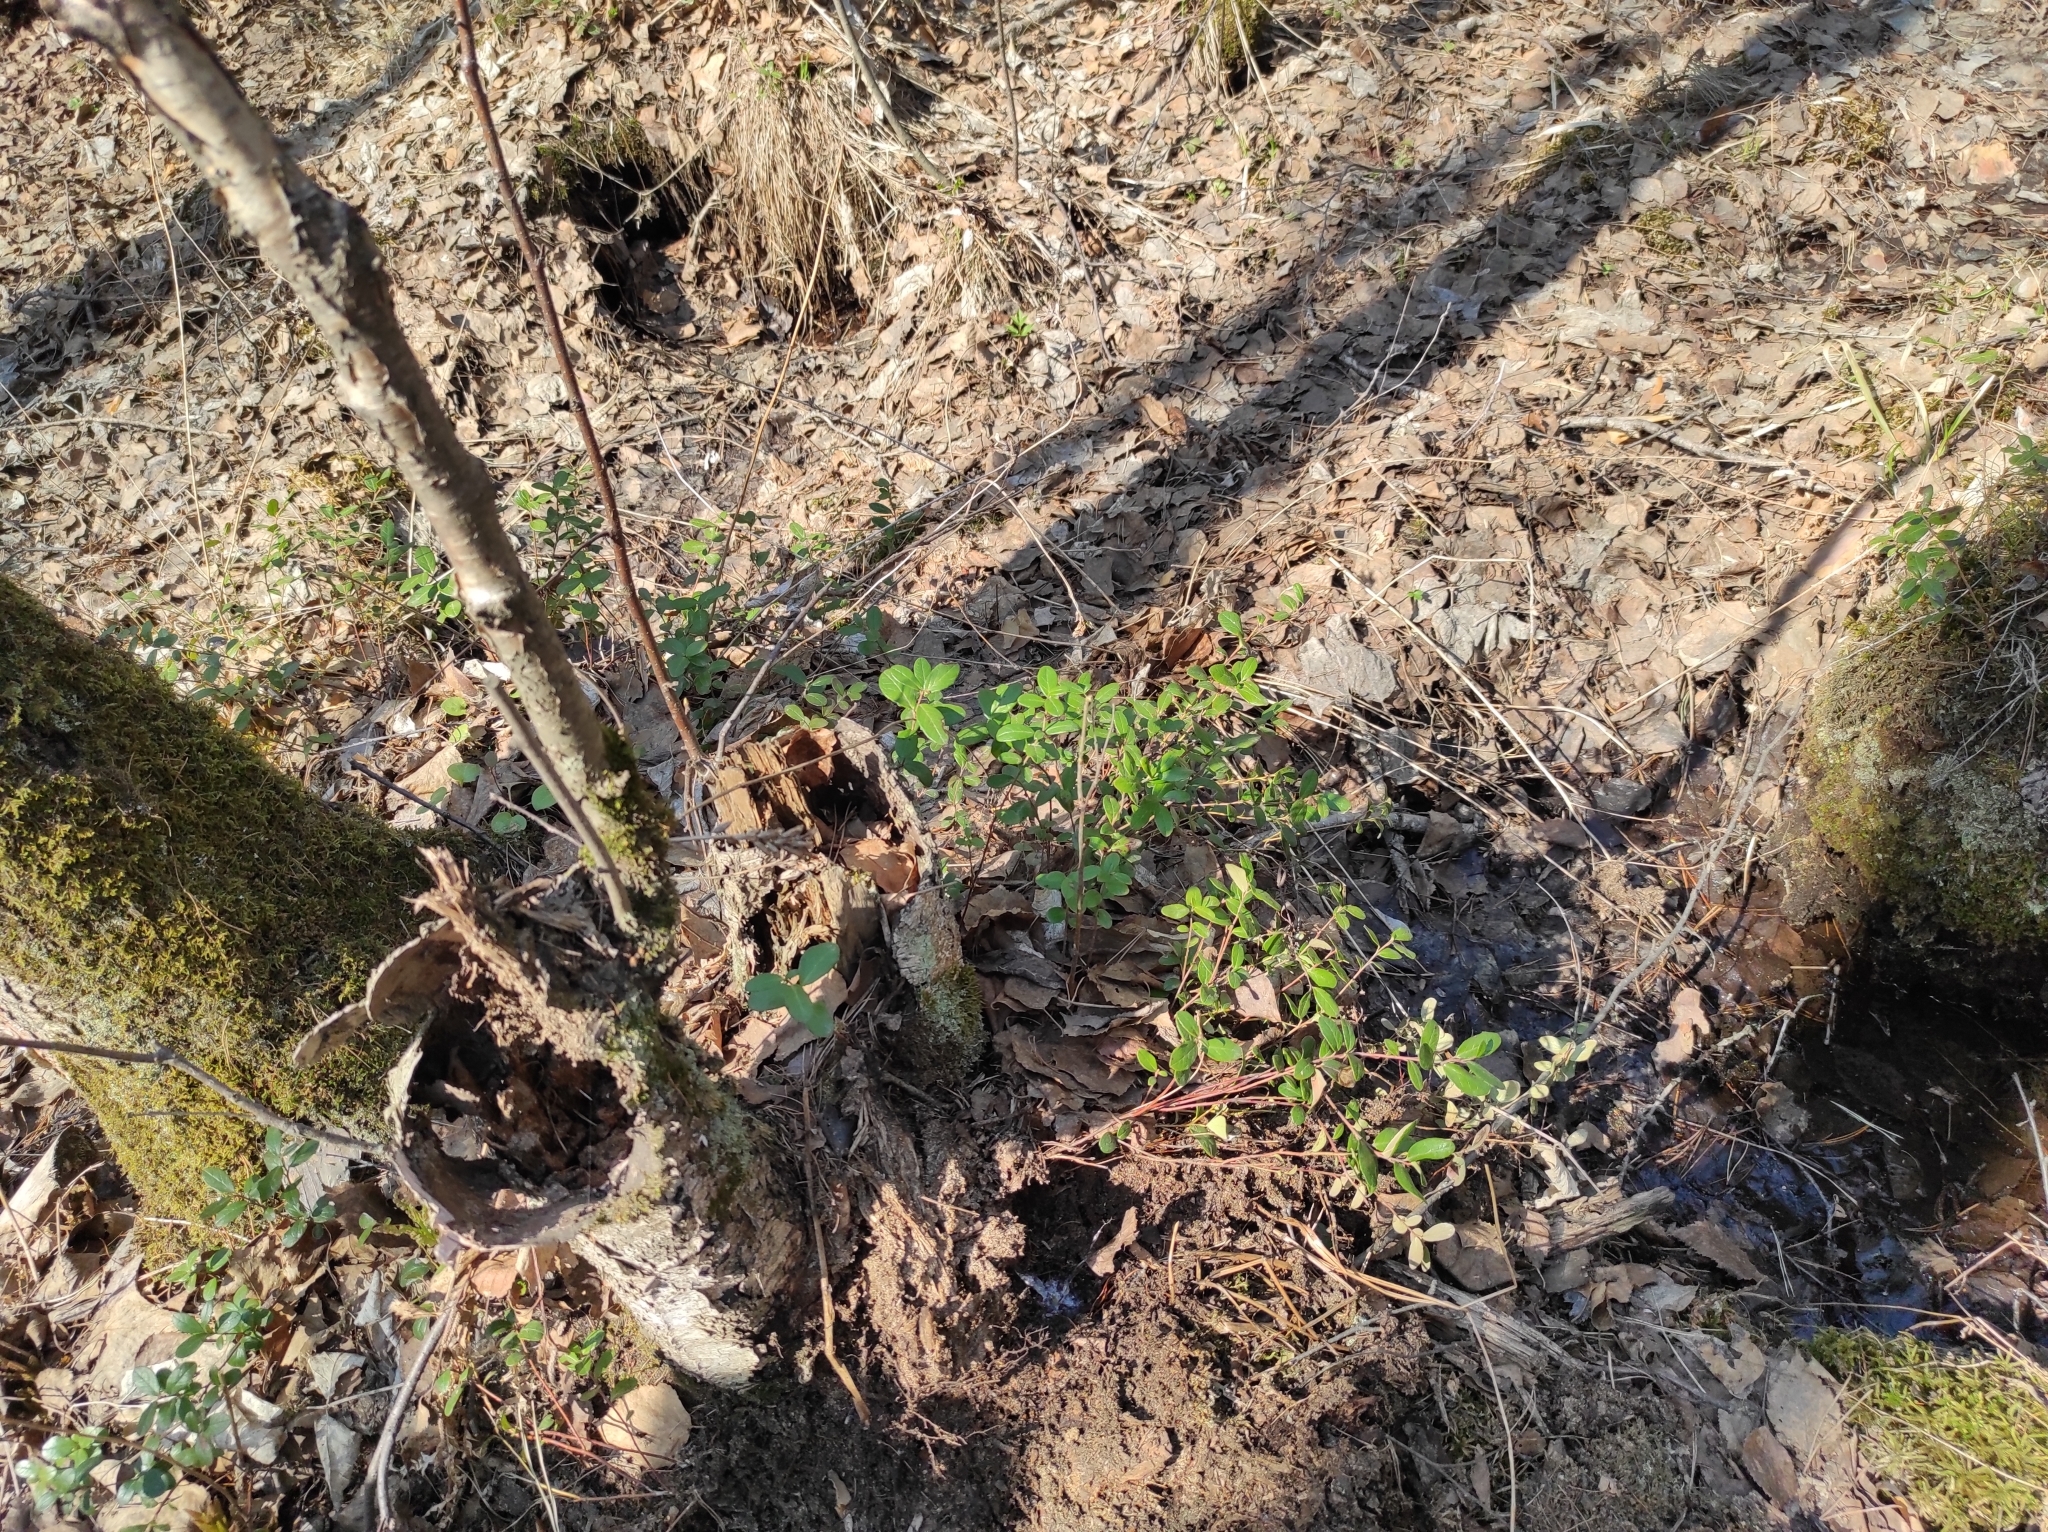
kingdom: Plantae
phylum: Tracheophyta
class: Magnoliopsida
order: Ericales
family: Ericaceae
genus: Vaccinium
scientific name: Vaccinium vitis-idaea
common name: Cowberry
